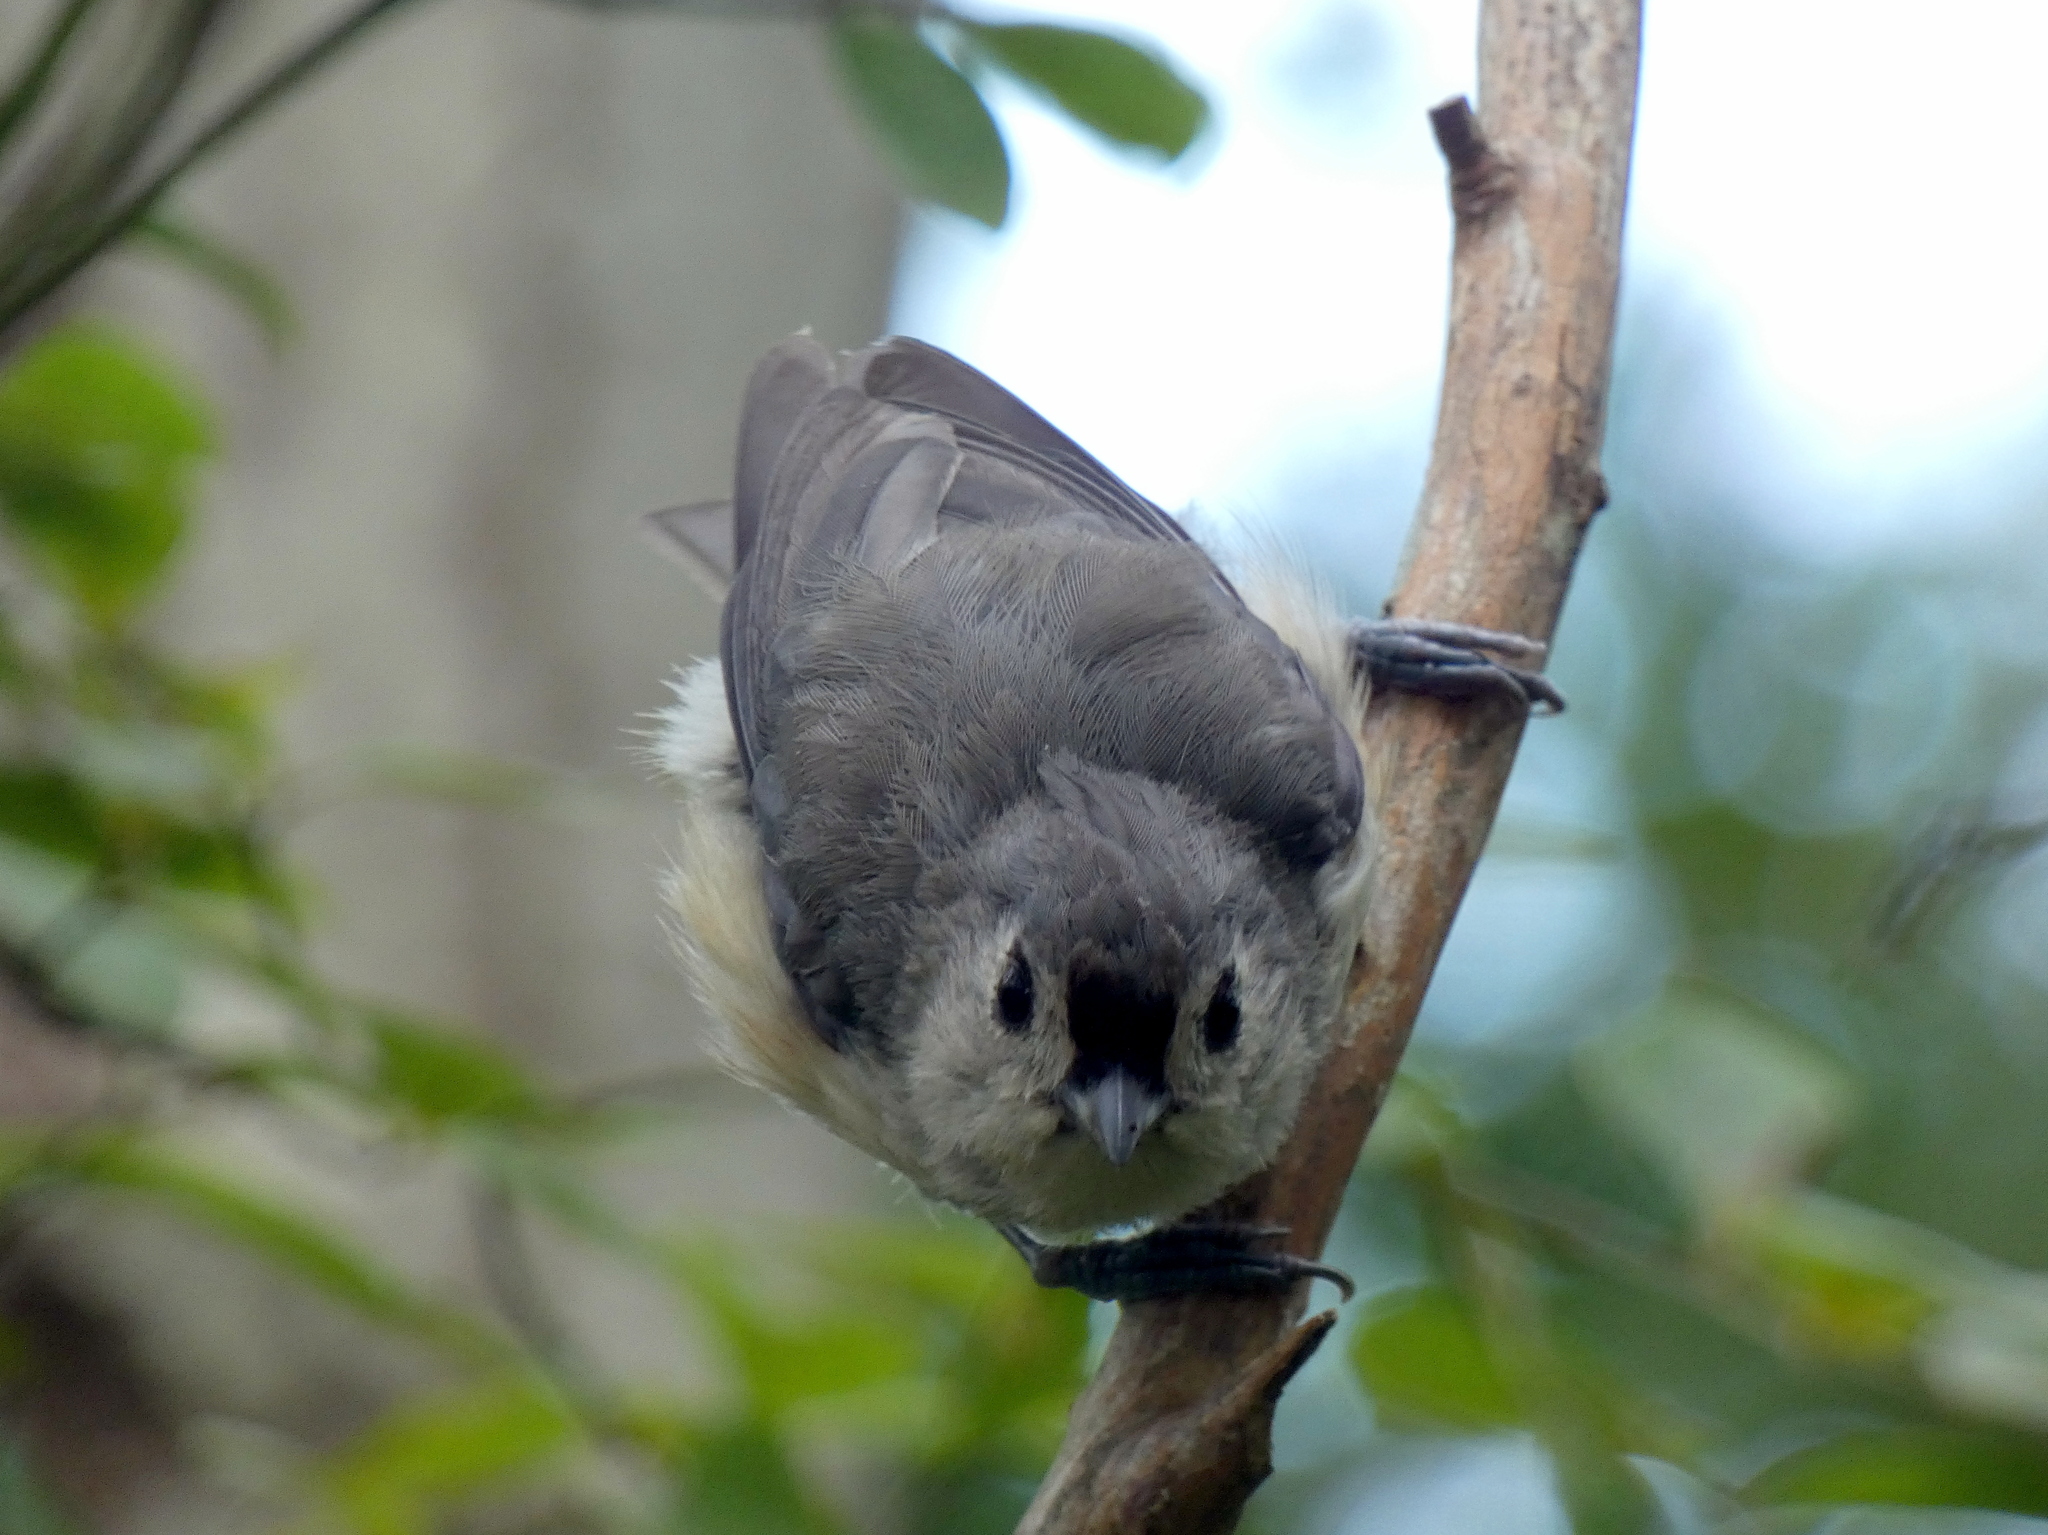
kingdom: Animalia
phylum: Chordata
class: Aves
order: Passeriformes
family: Paridae
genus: Baeolophus
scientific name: Baeolophus bicolor
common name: Tufted titmouse
